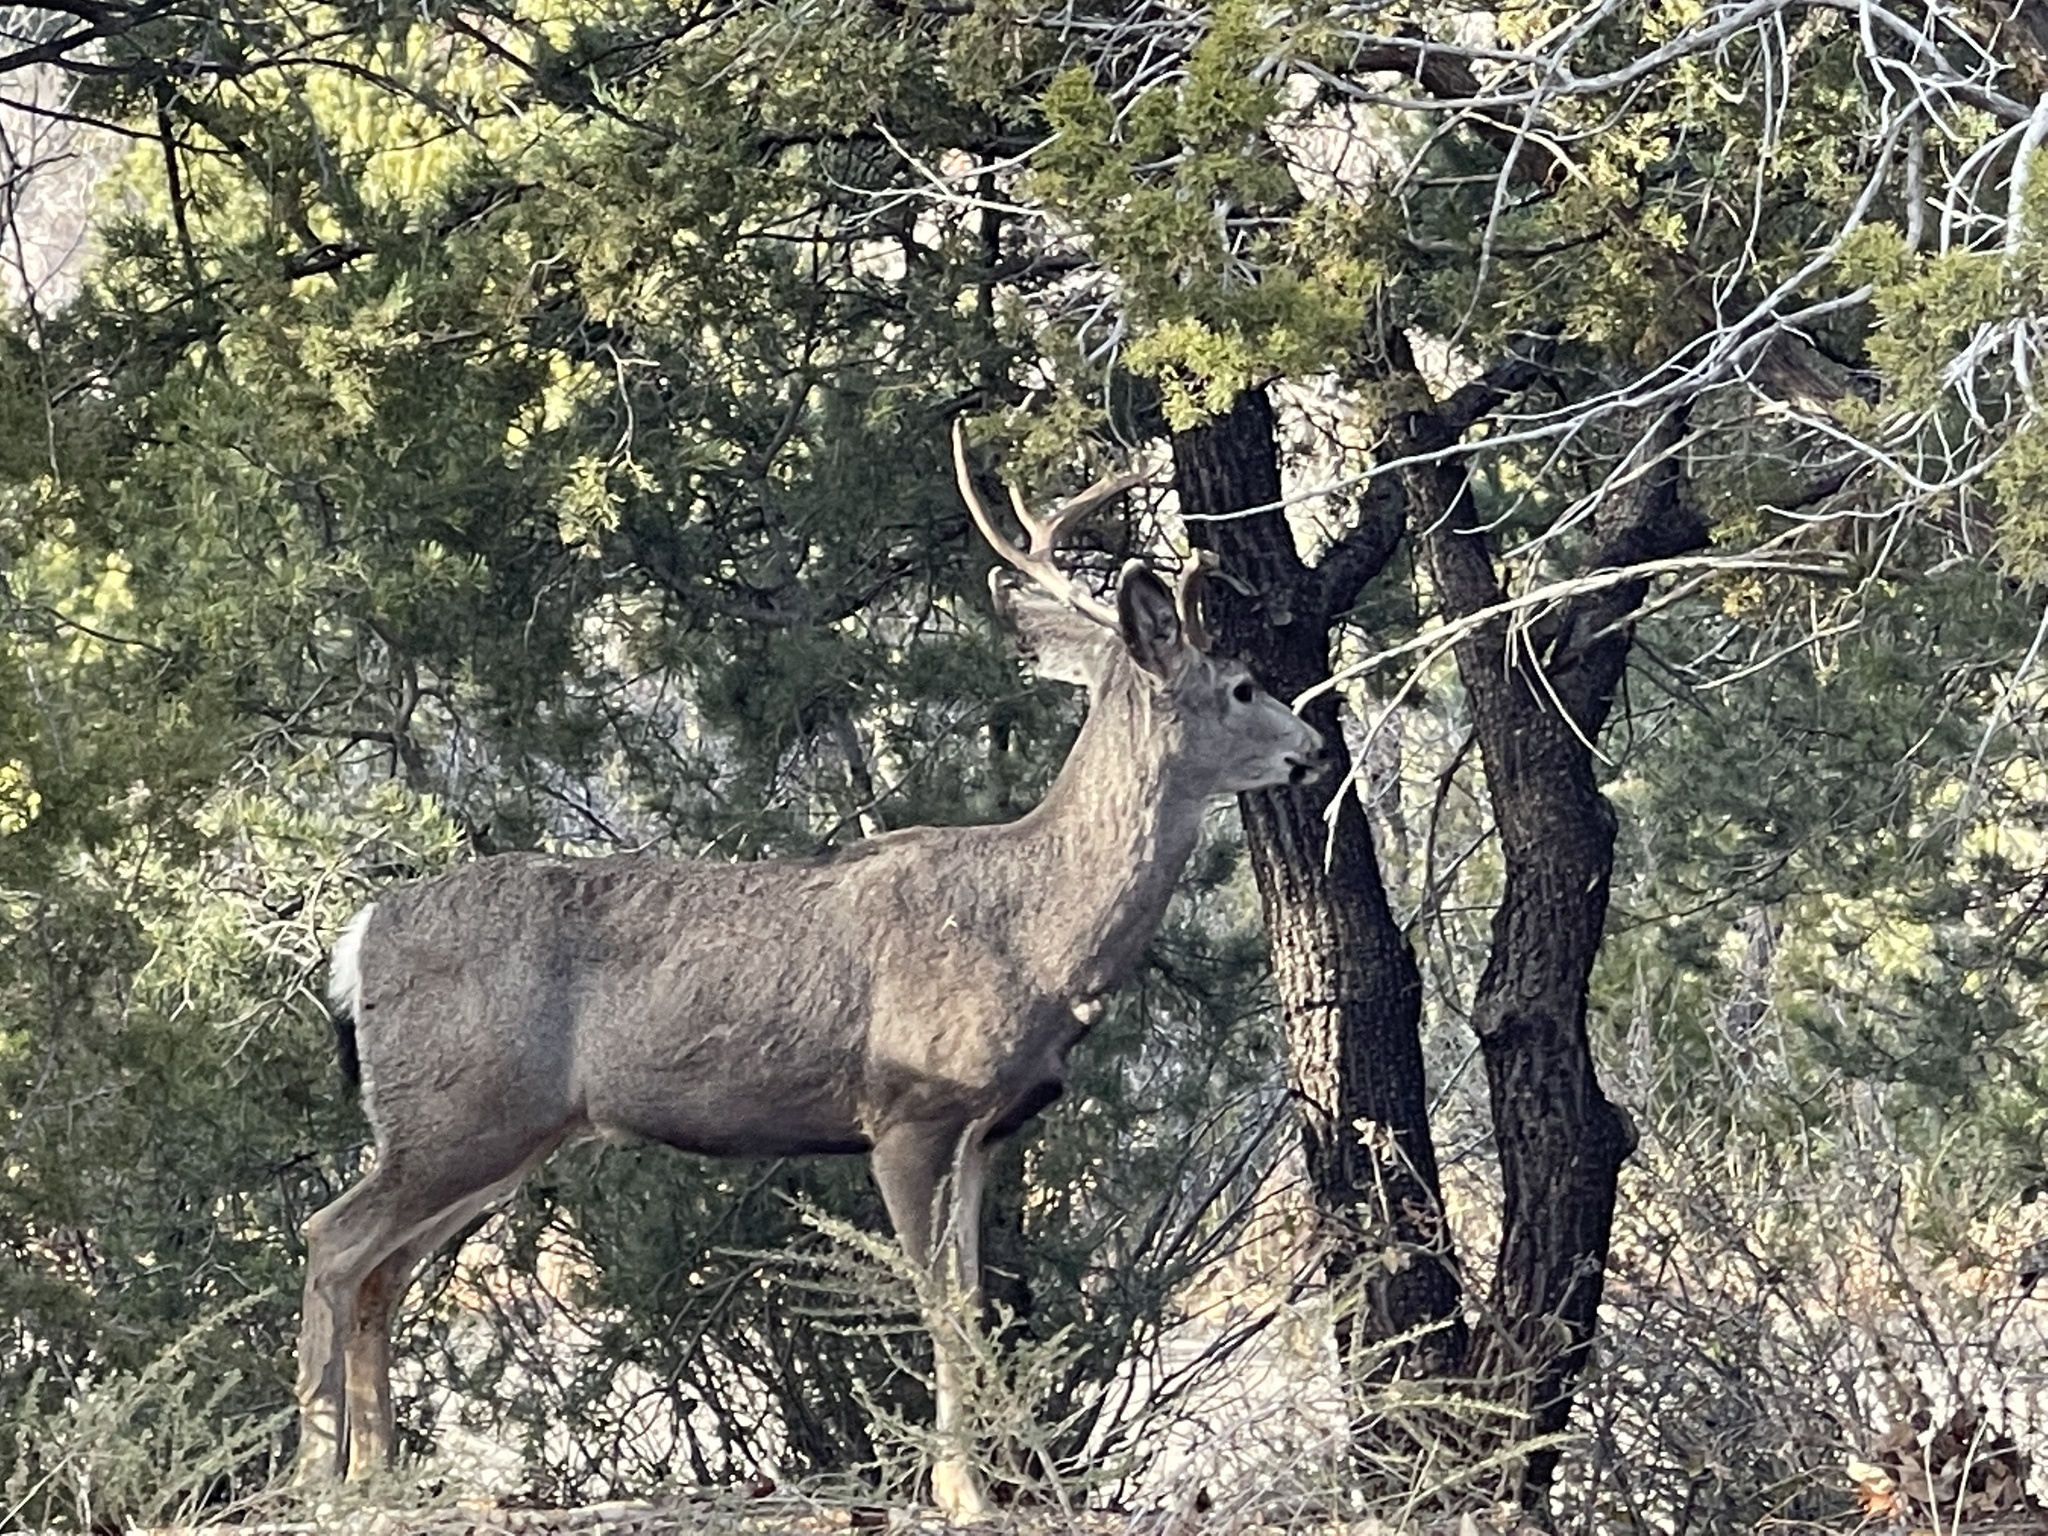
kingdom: Animalia
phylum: Chordata
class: Mammalia
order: Artiodactyla
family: Cervidae
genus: Odocoileus
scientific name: Odocoileus hemionus
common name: Mule deer
